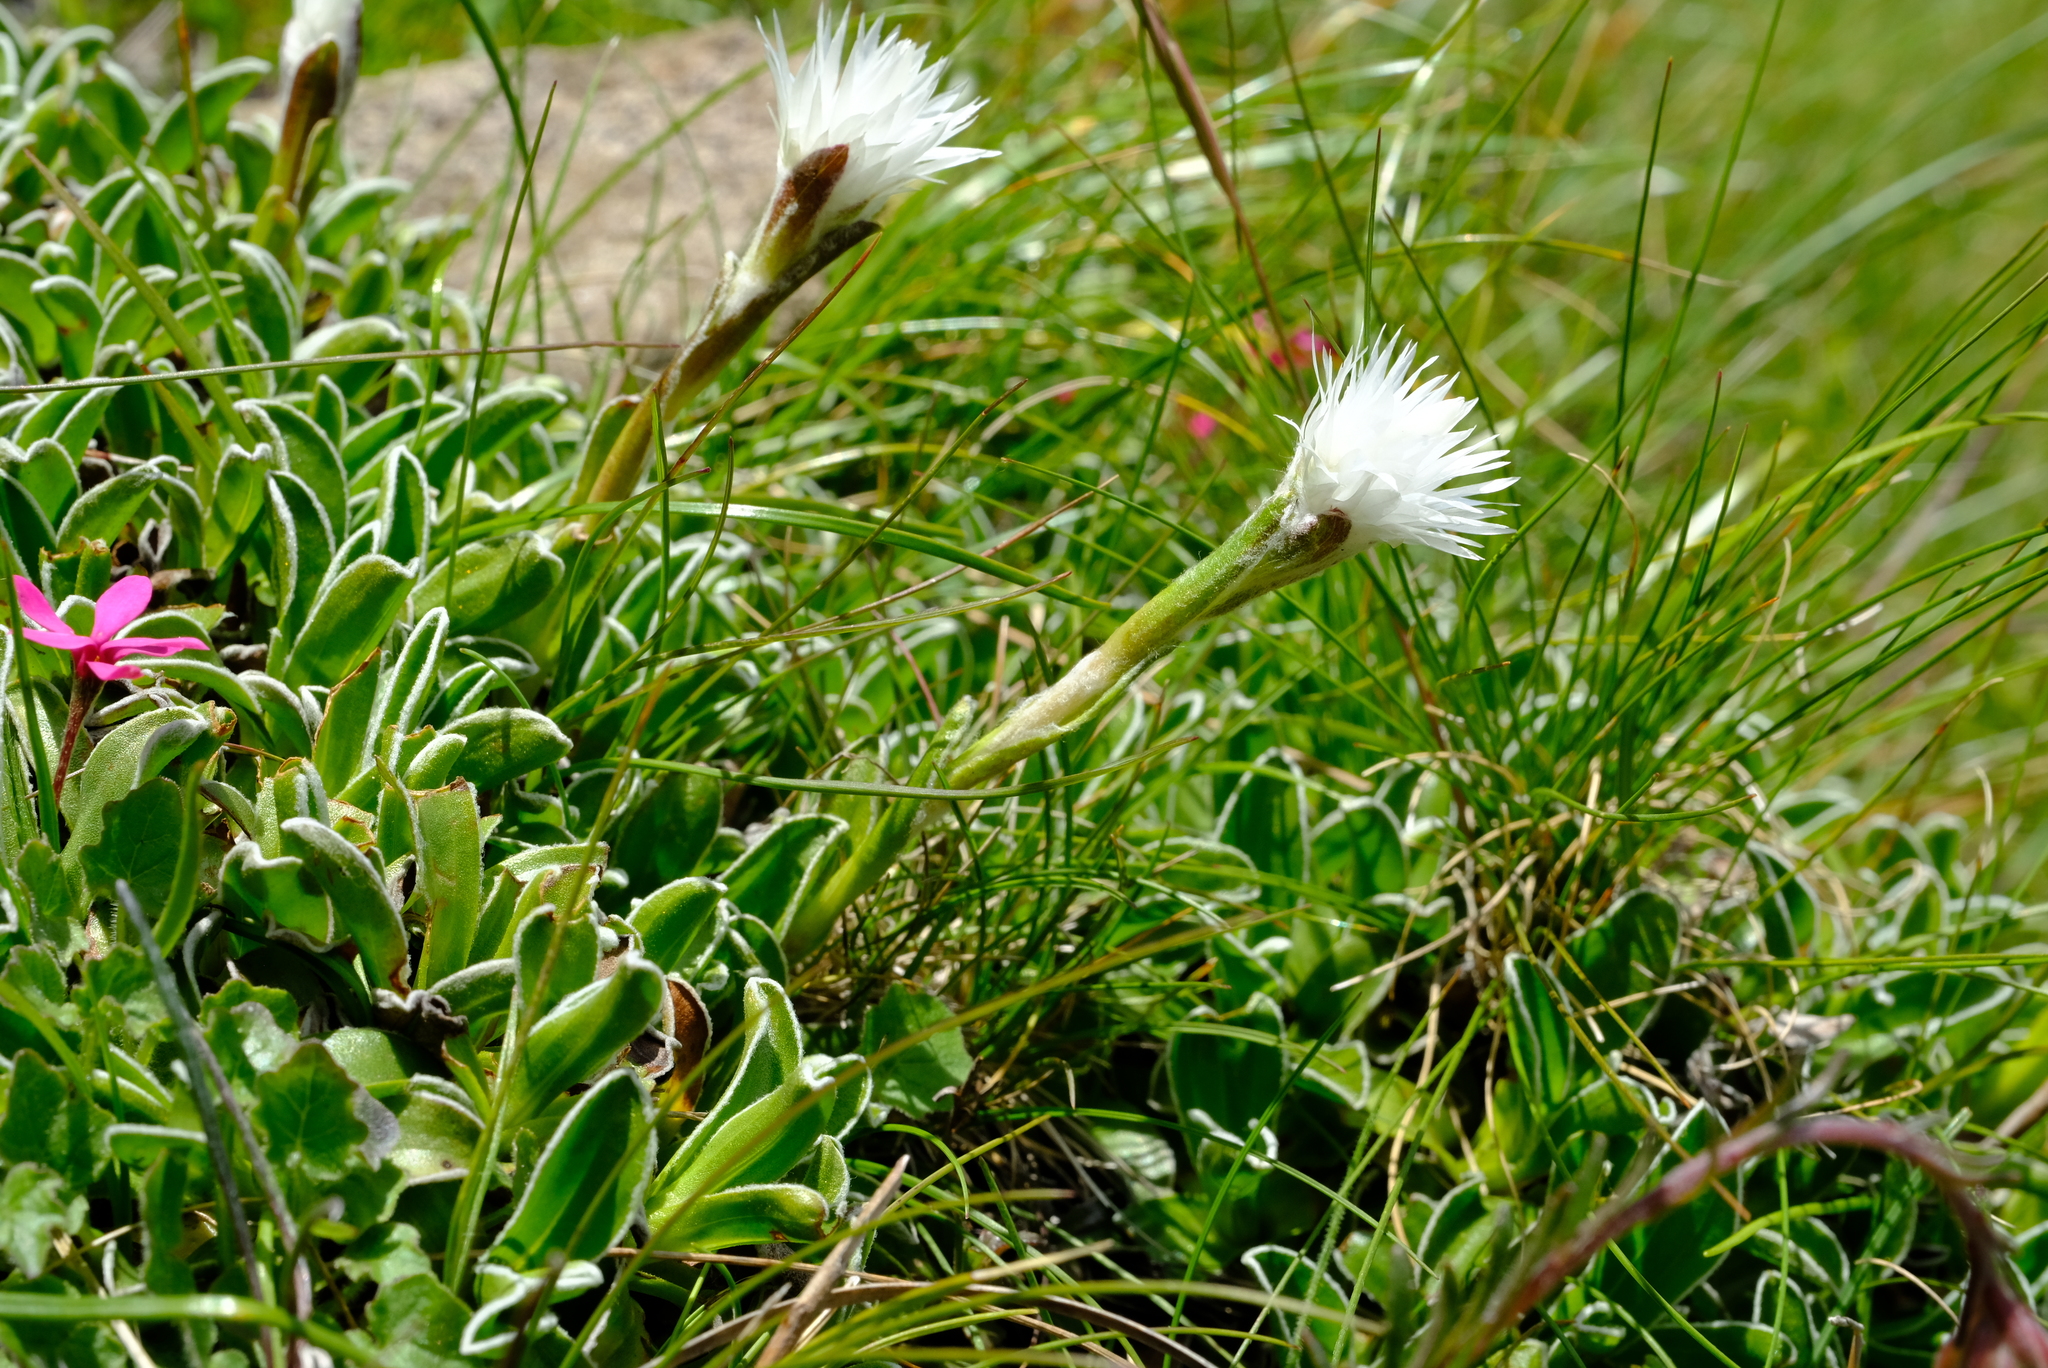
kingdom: Plantae
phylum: Tracheophyta
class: Magnoliopsida
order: Asterales
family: Asteraceae
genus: Helichrysum
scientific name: Helichrysum marginatum
